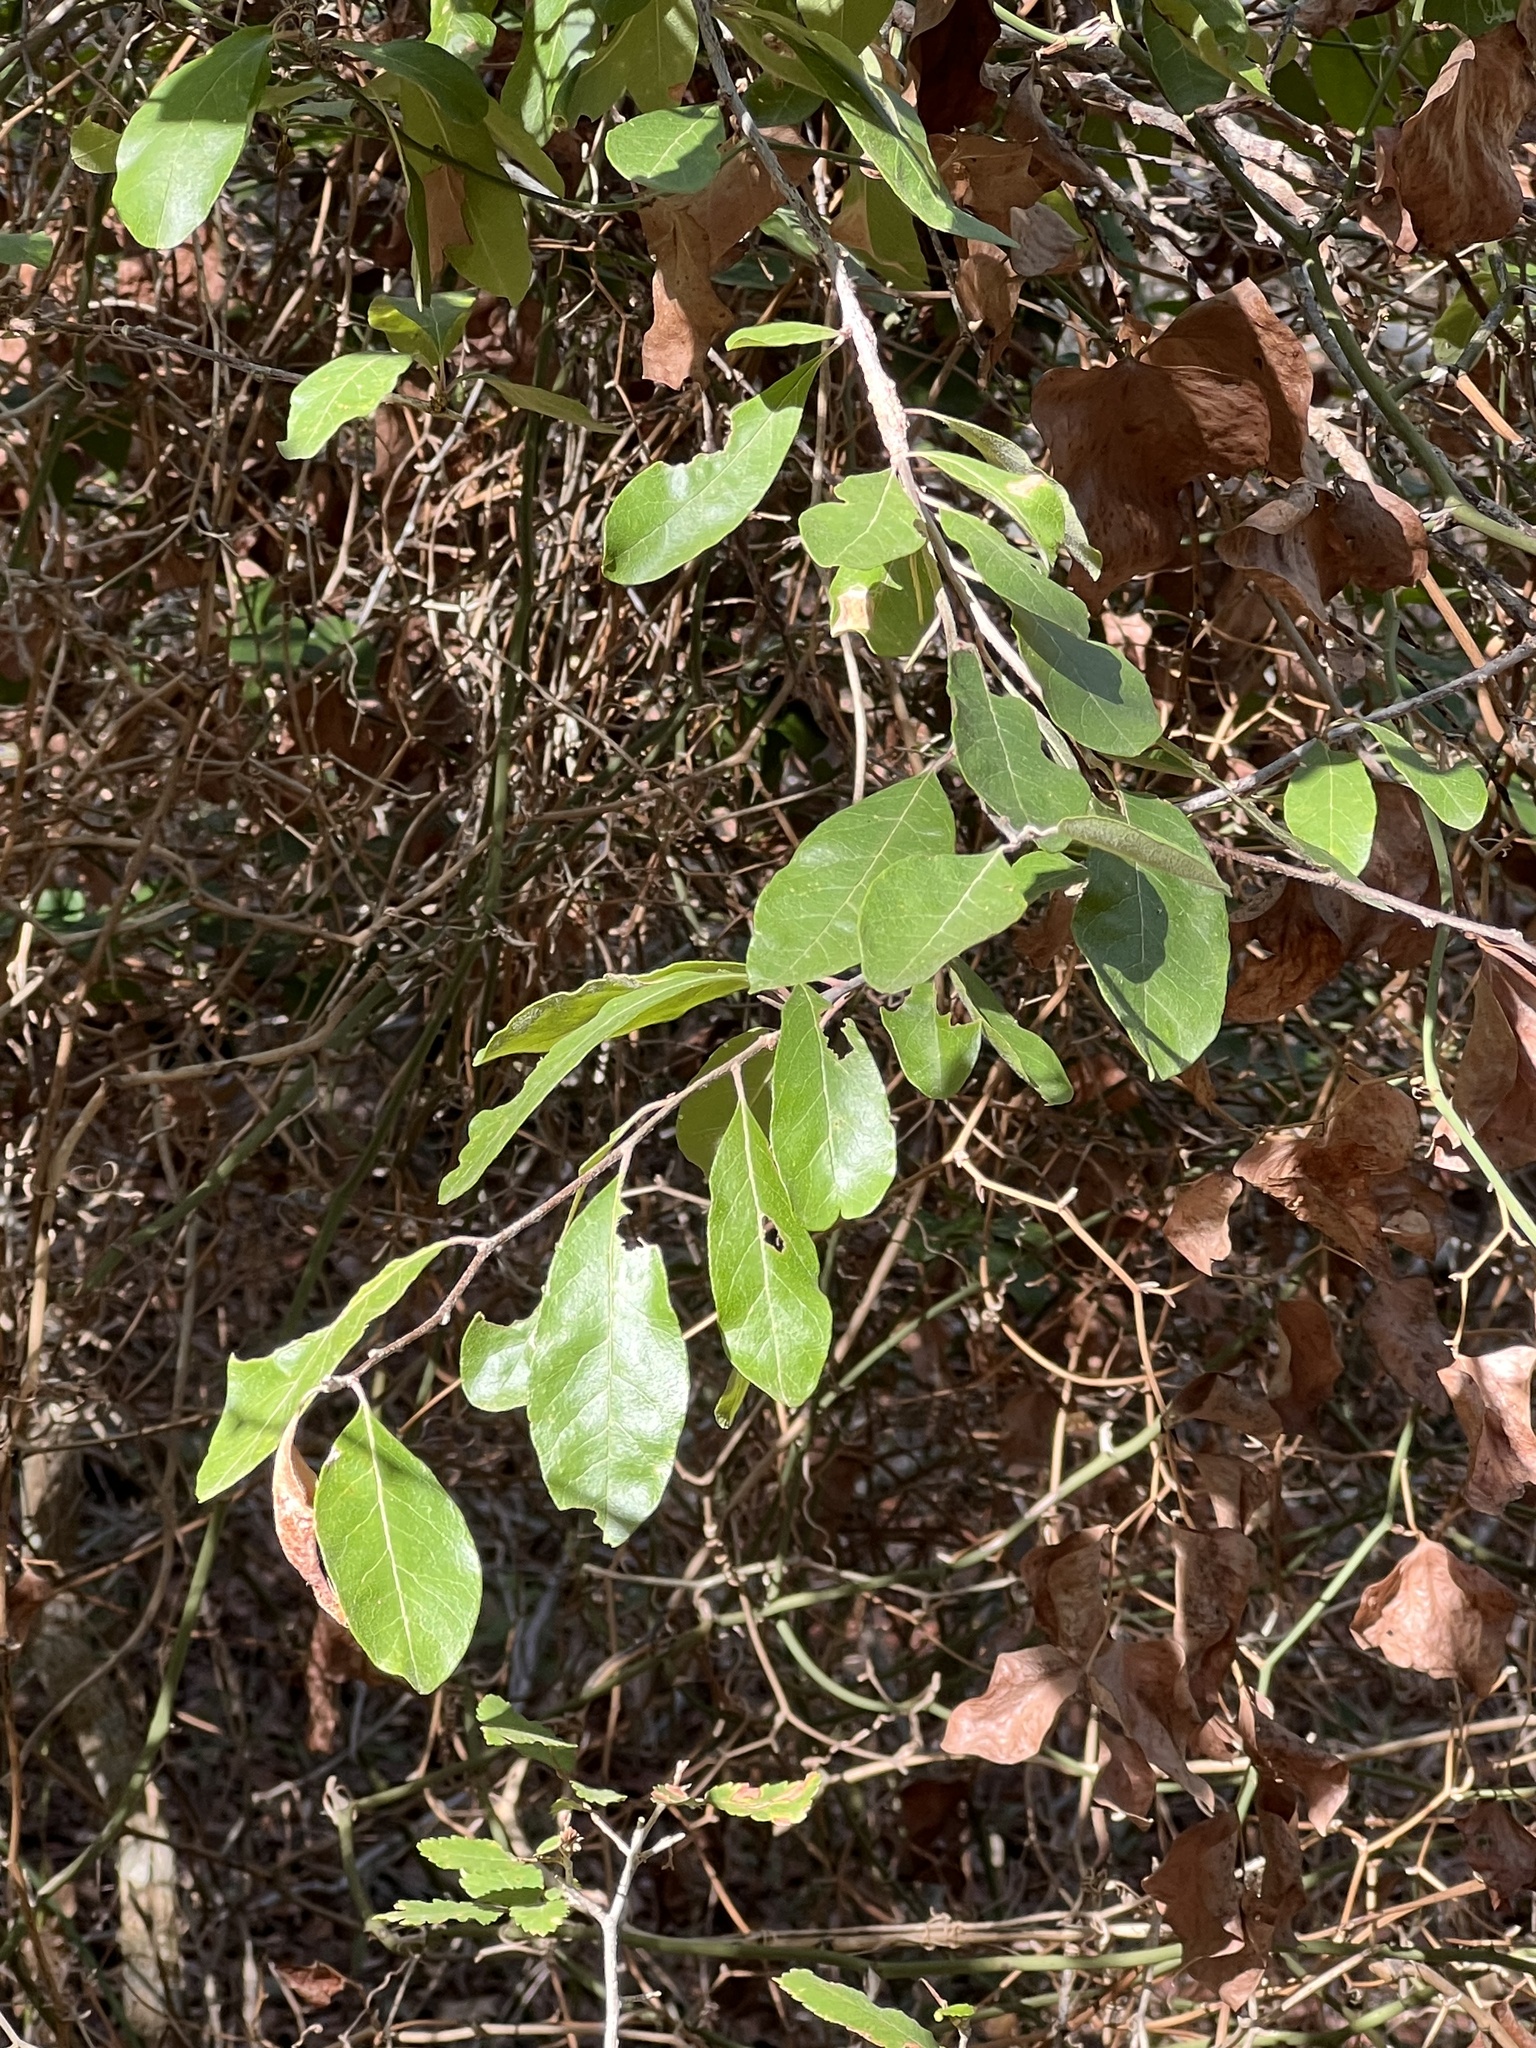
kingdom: Plantae
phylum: Tracheophyta
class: Magnoliopsida
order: Garryales
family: Garryaceae
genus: Garrya
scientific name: Garrya lindheimeri
